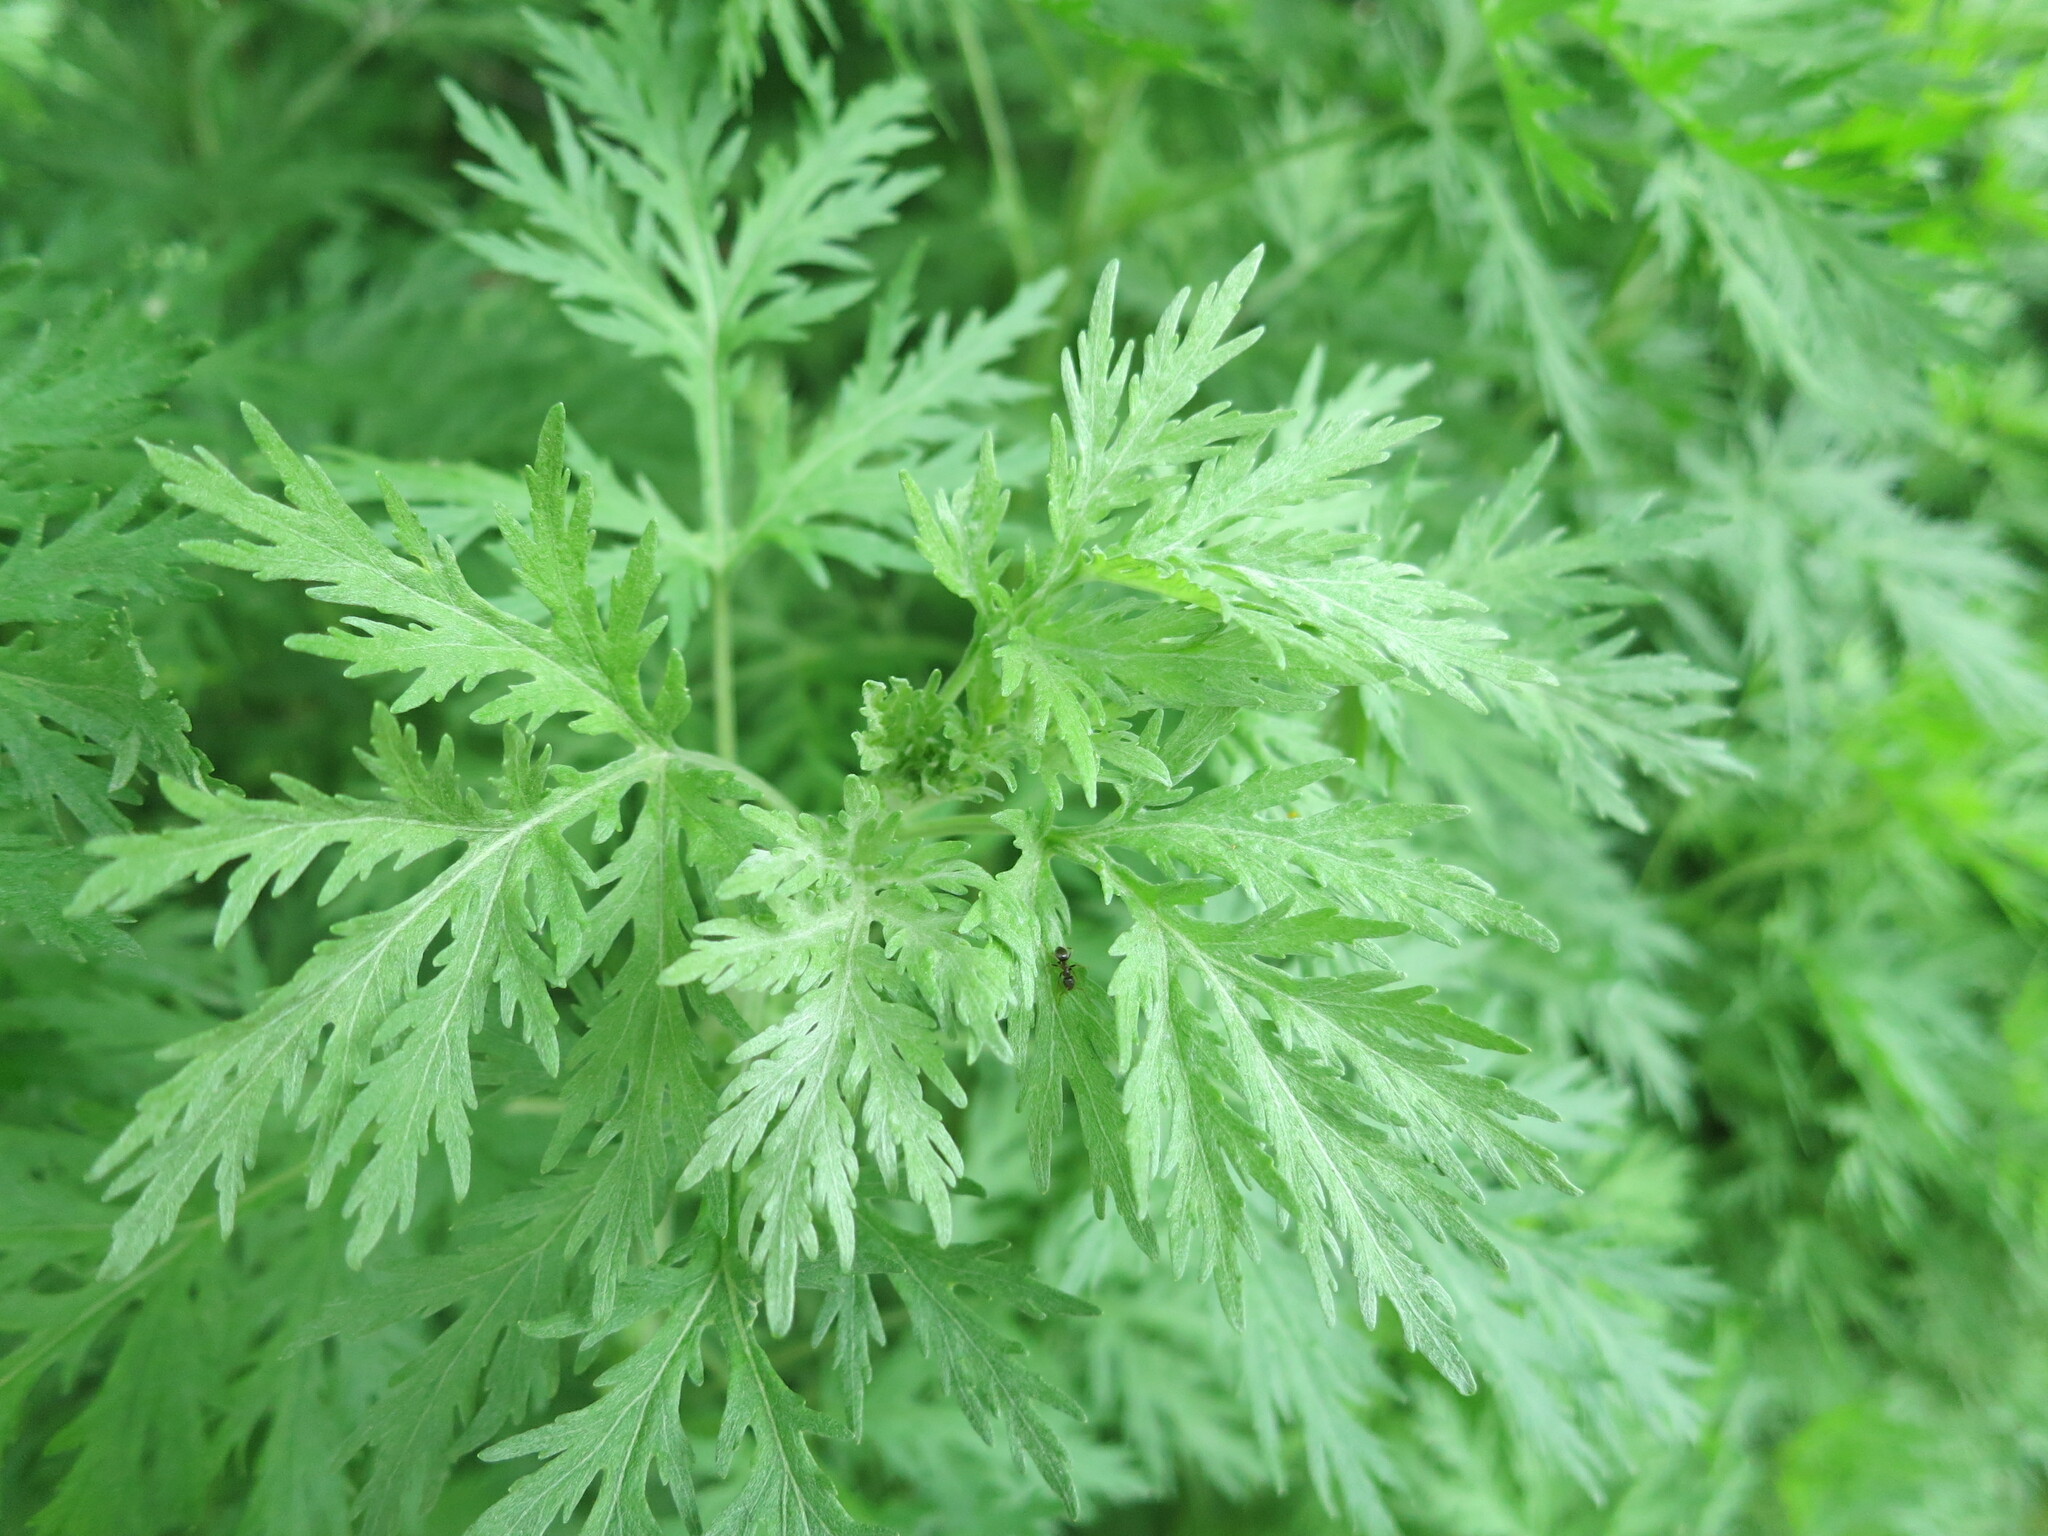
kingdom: Plantae
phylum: Tracheophyta
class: Magnoliopsida
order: Asterales
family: Asteraceae
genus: Artemisia
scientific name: Artemisia sieversiana
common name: Sieversian wormwood
